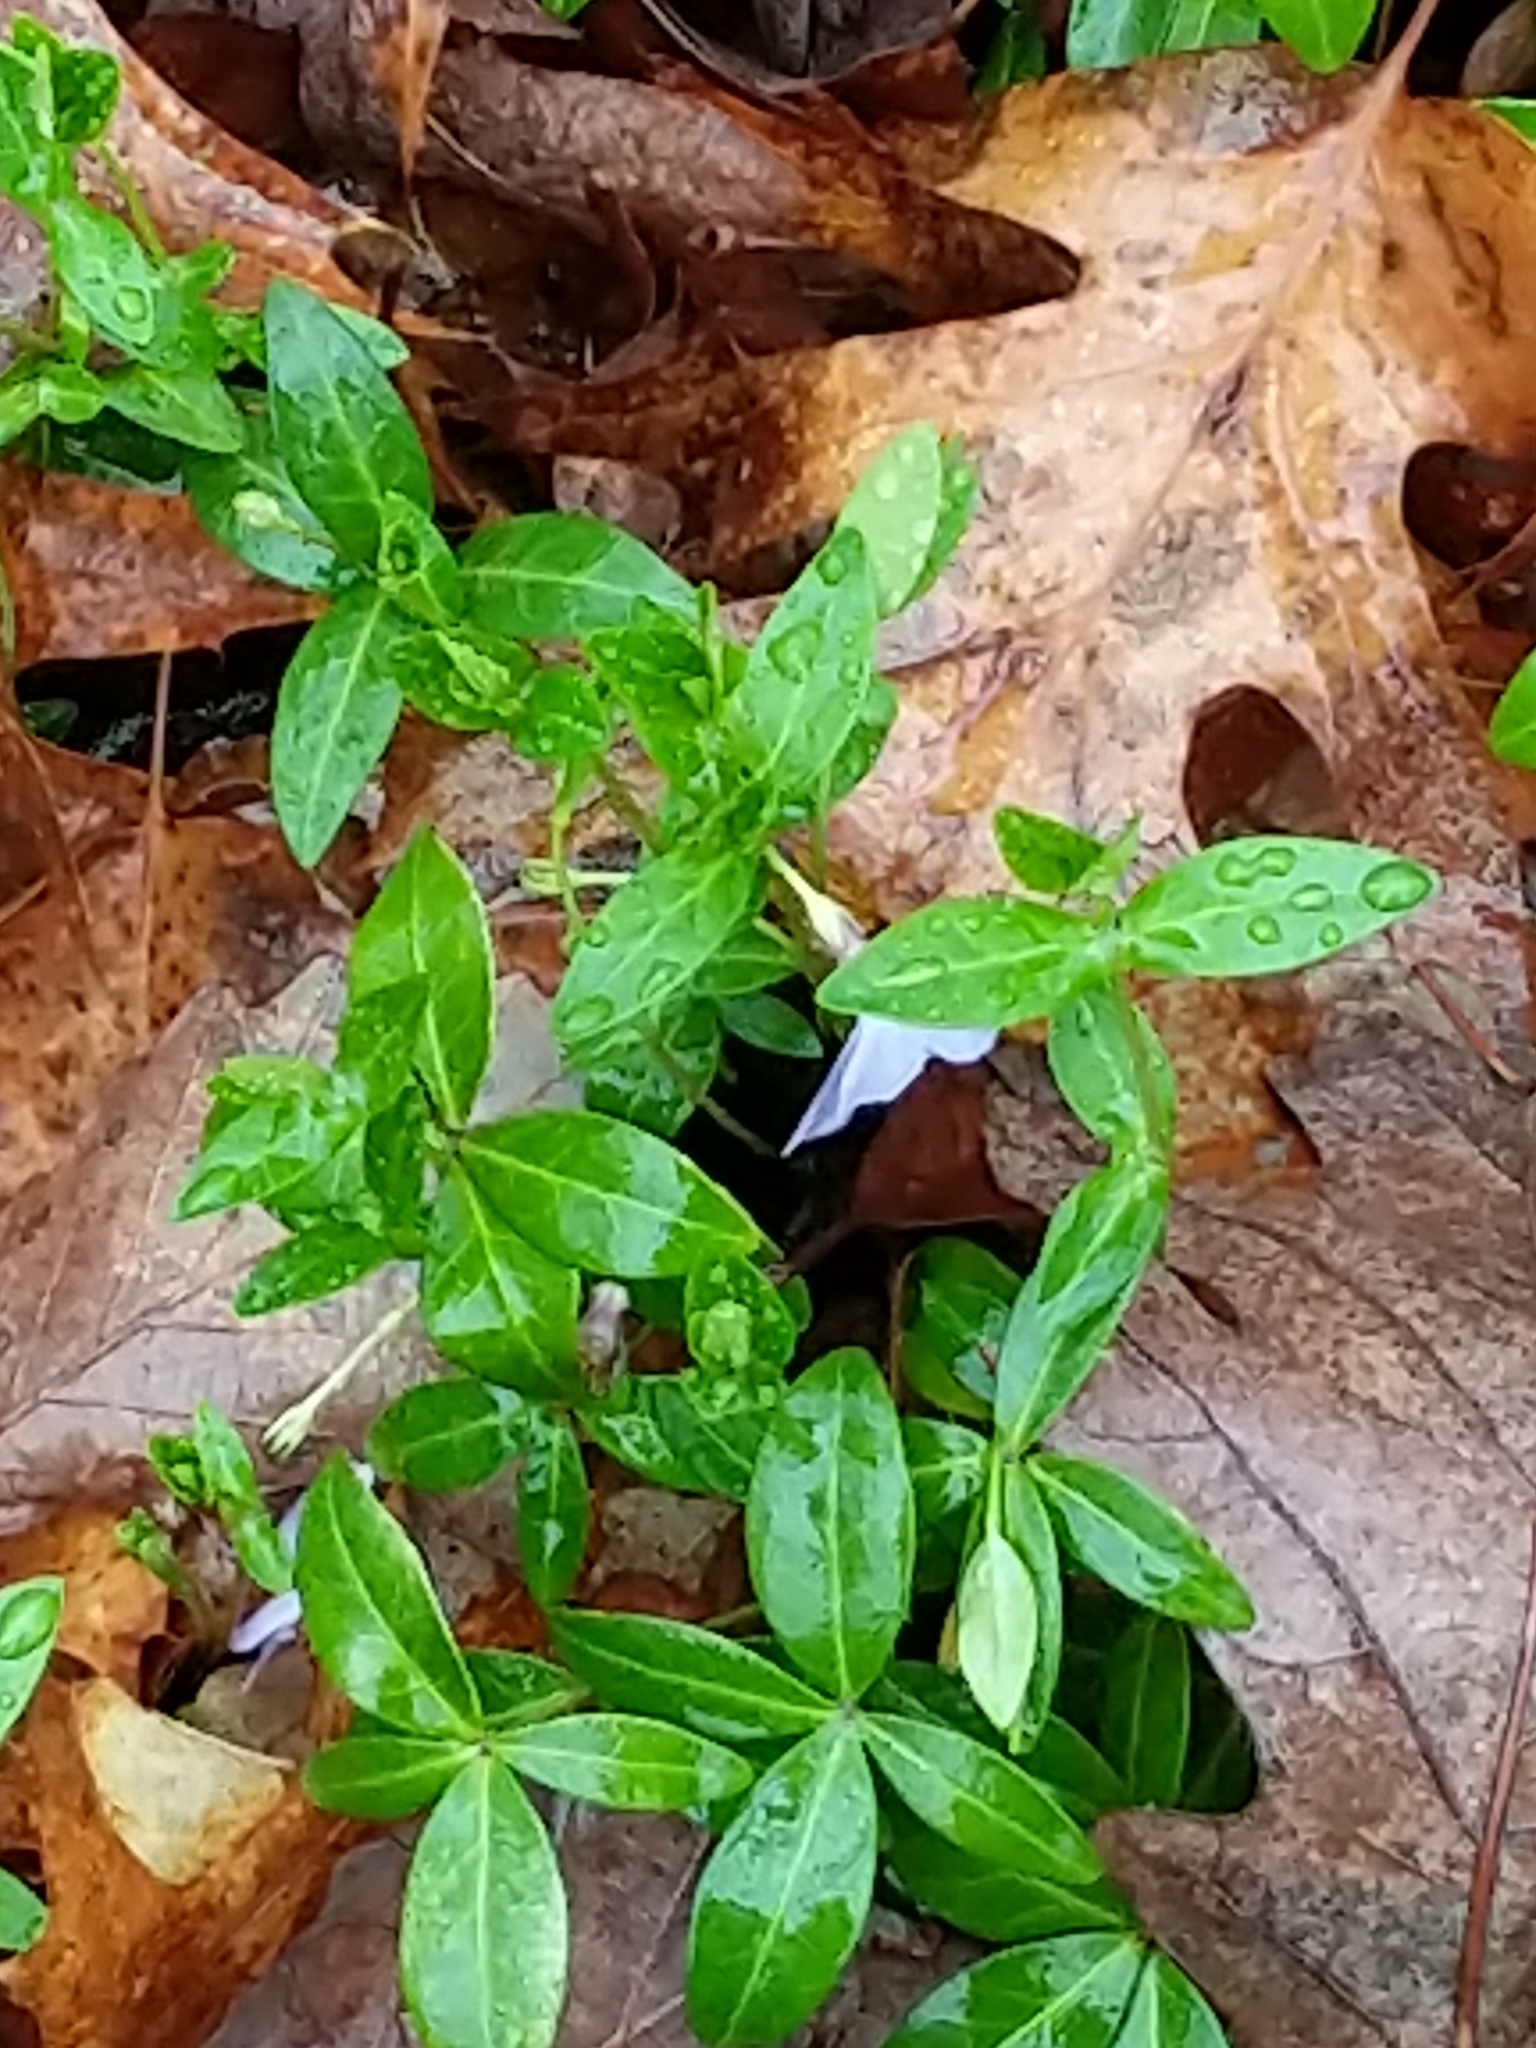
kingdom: Plantae
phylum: Tracheophyta
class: Magnoliopsida
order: Gentianales
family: Apocynaceae
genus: Vinca
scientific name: Vinca minor
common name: Lesser periwinkle
